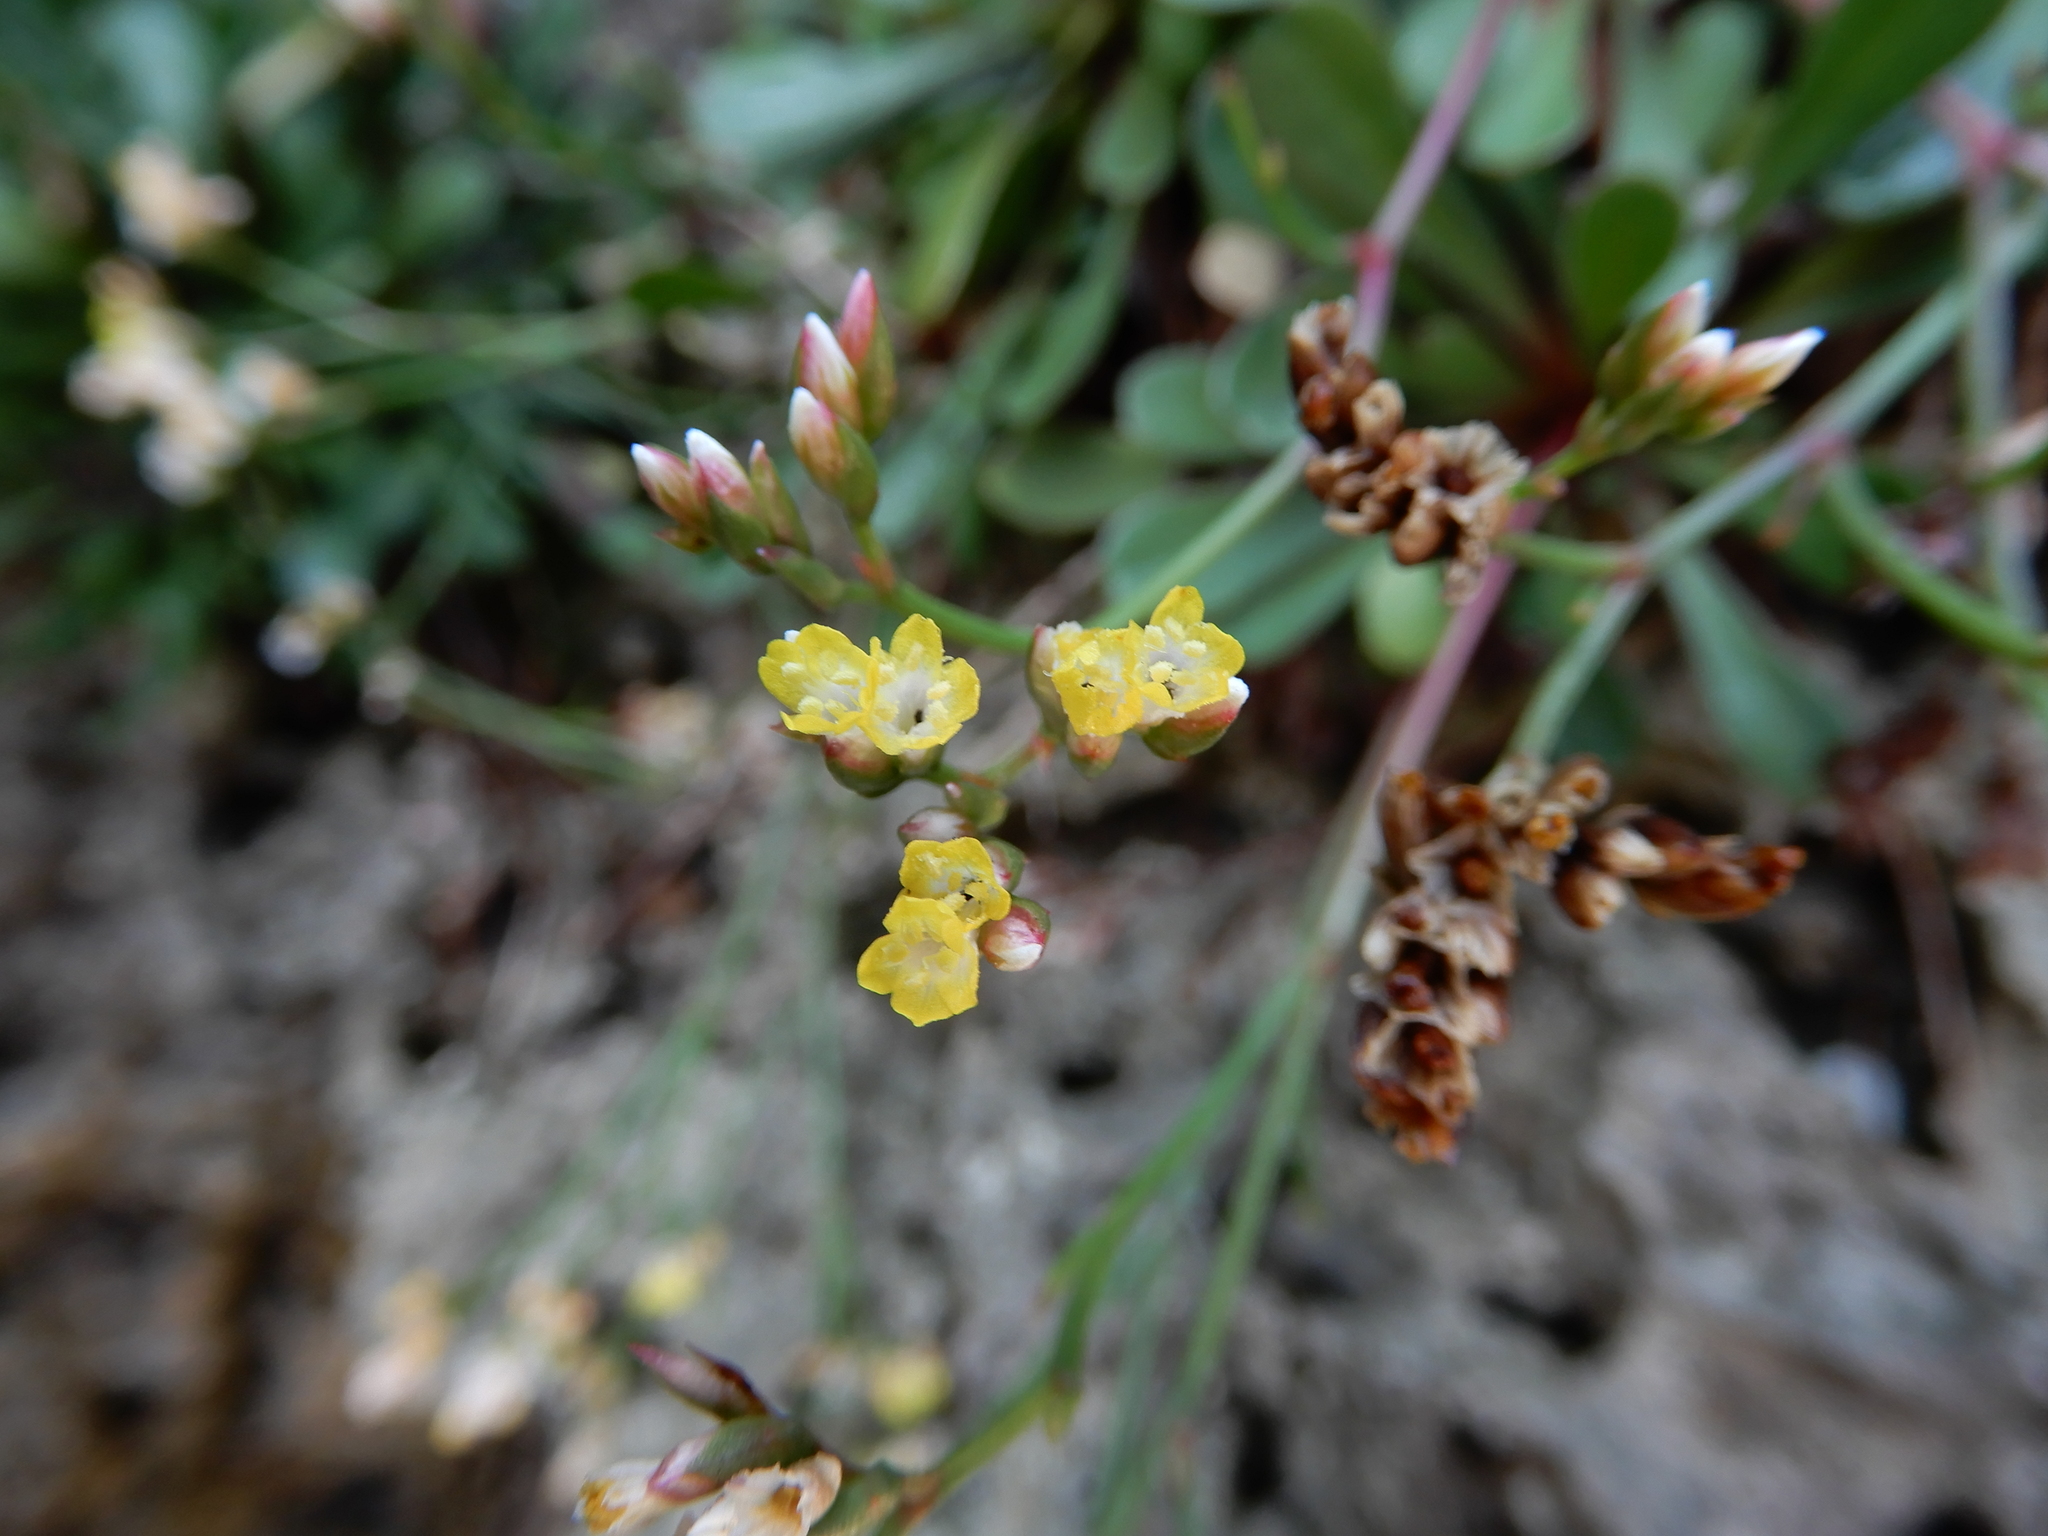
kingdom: Plantae
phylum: Tracheophyta
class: Magnoliopsida
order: Caryophyllales
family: Plumbaginaceae
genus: Limonium
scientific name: Limonium wrightii
